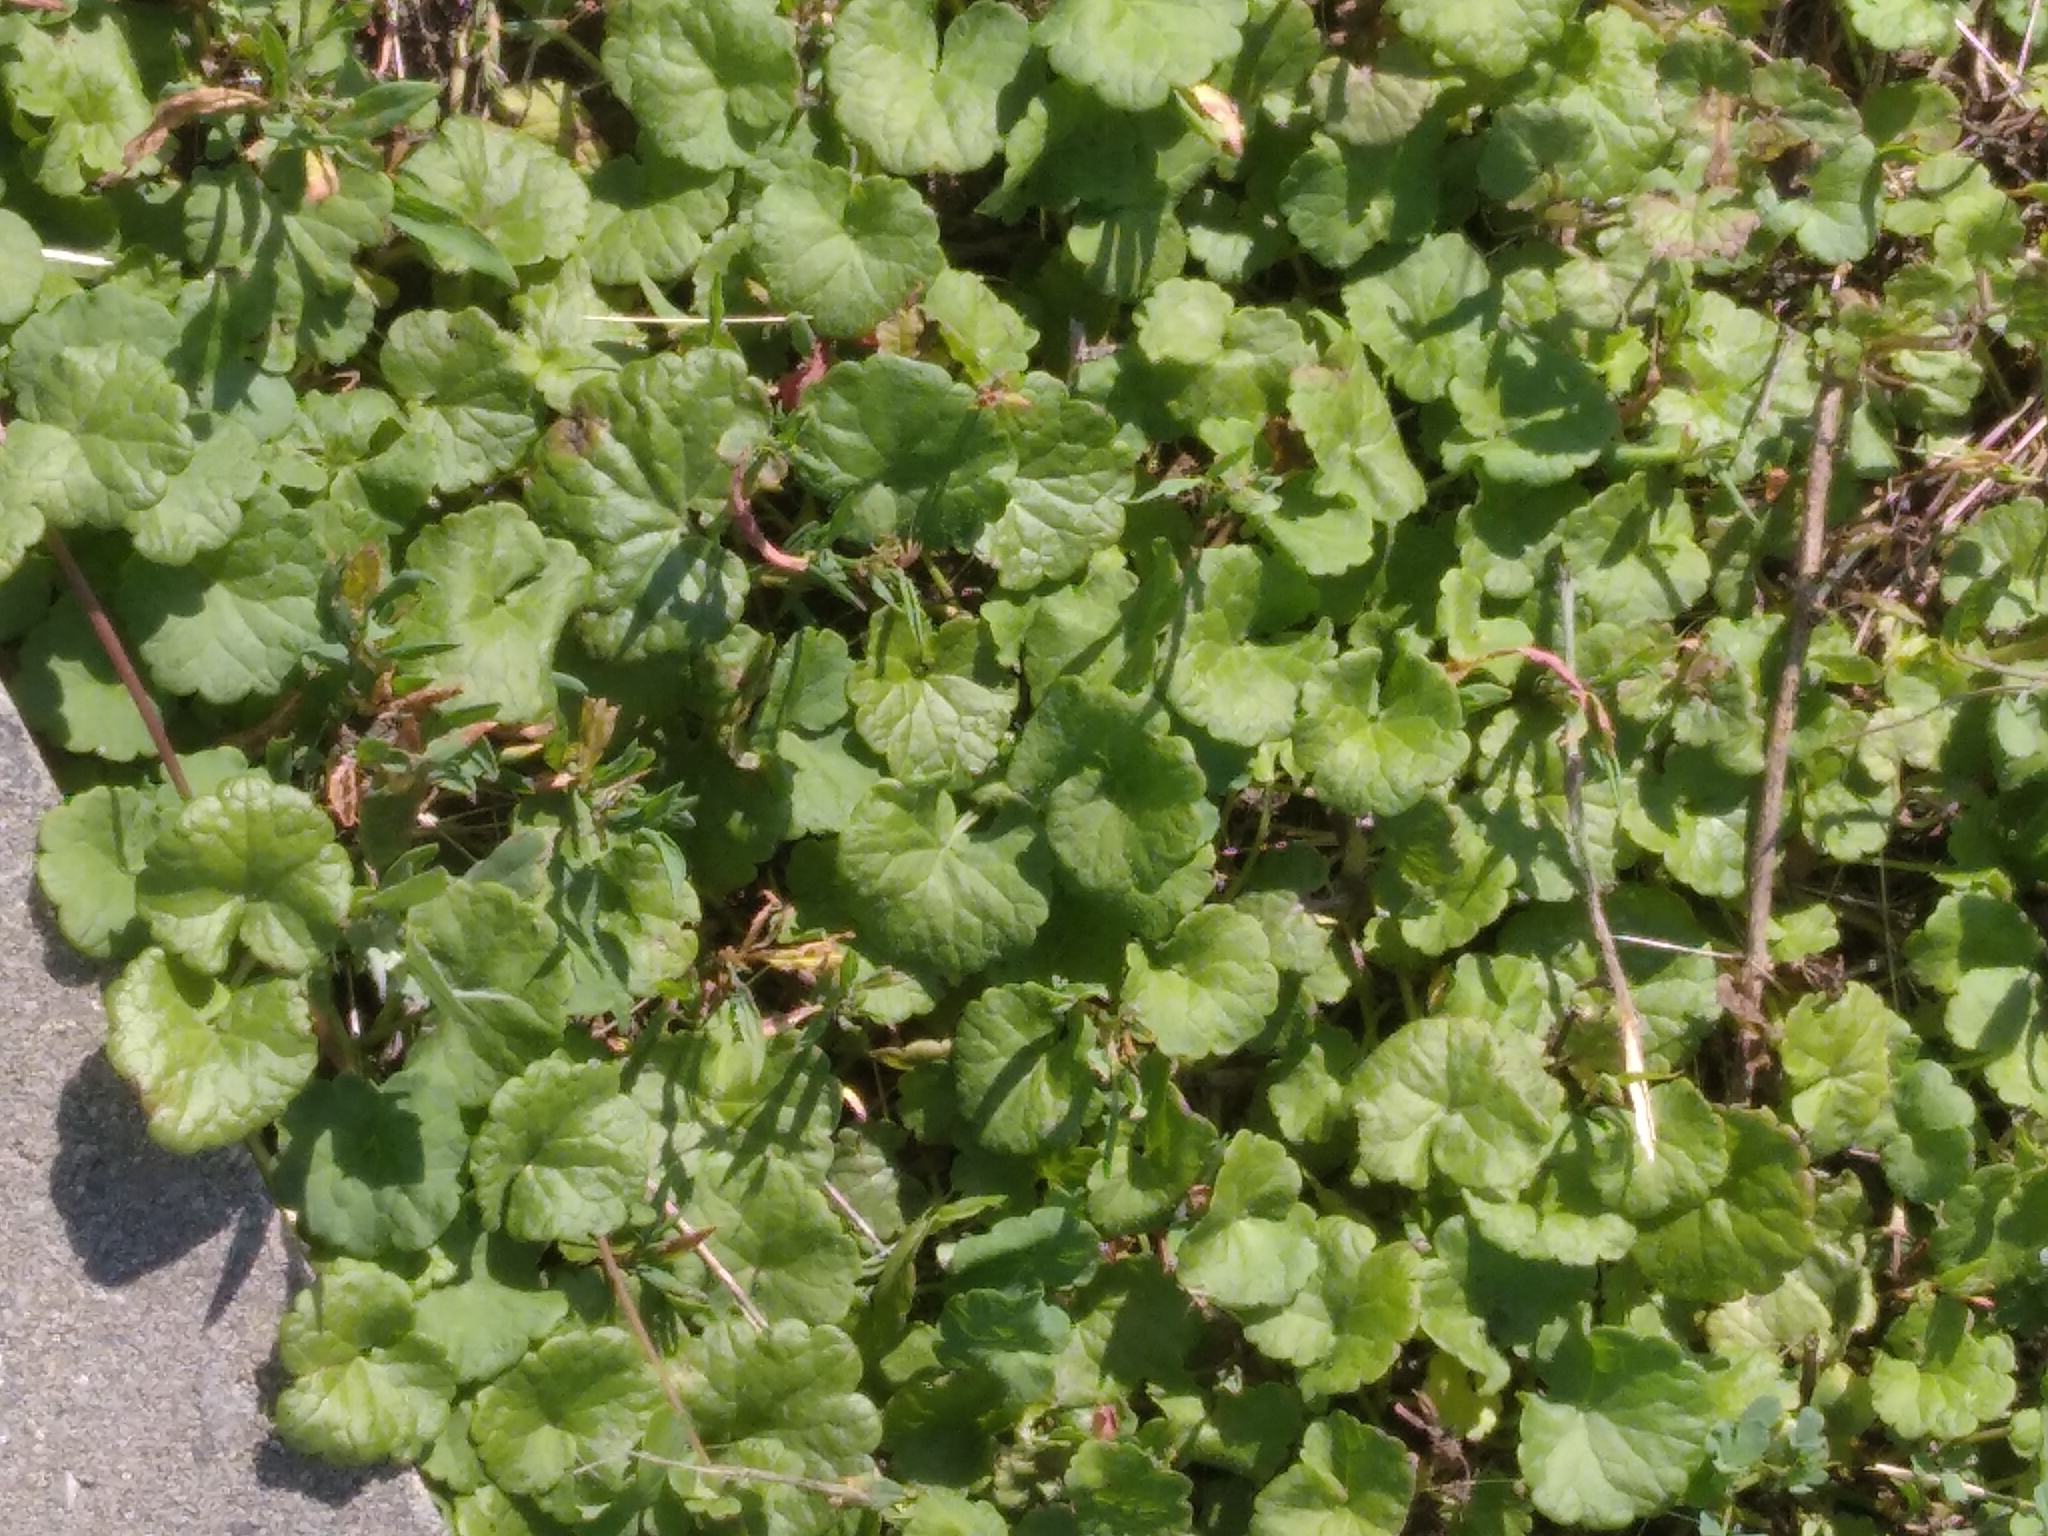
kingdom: Plantae
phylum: Tracheophyta
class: Magnoliopsida
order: Lamiales
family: Lamiaceae
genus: Glechoma
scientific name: Glechoma hederacea
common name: Ground ivy
